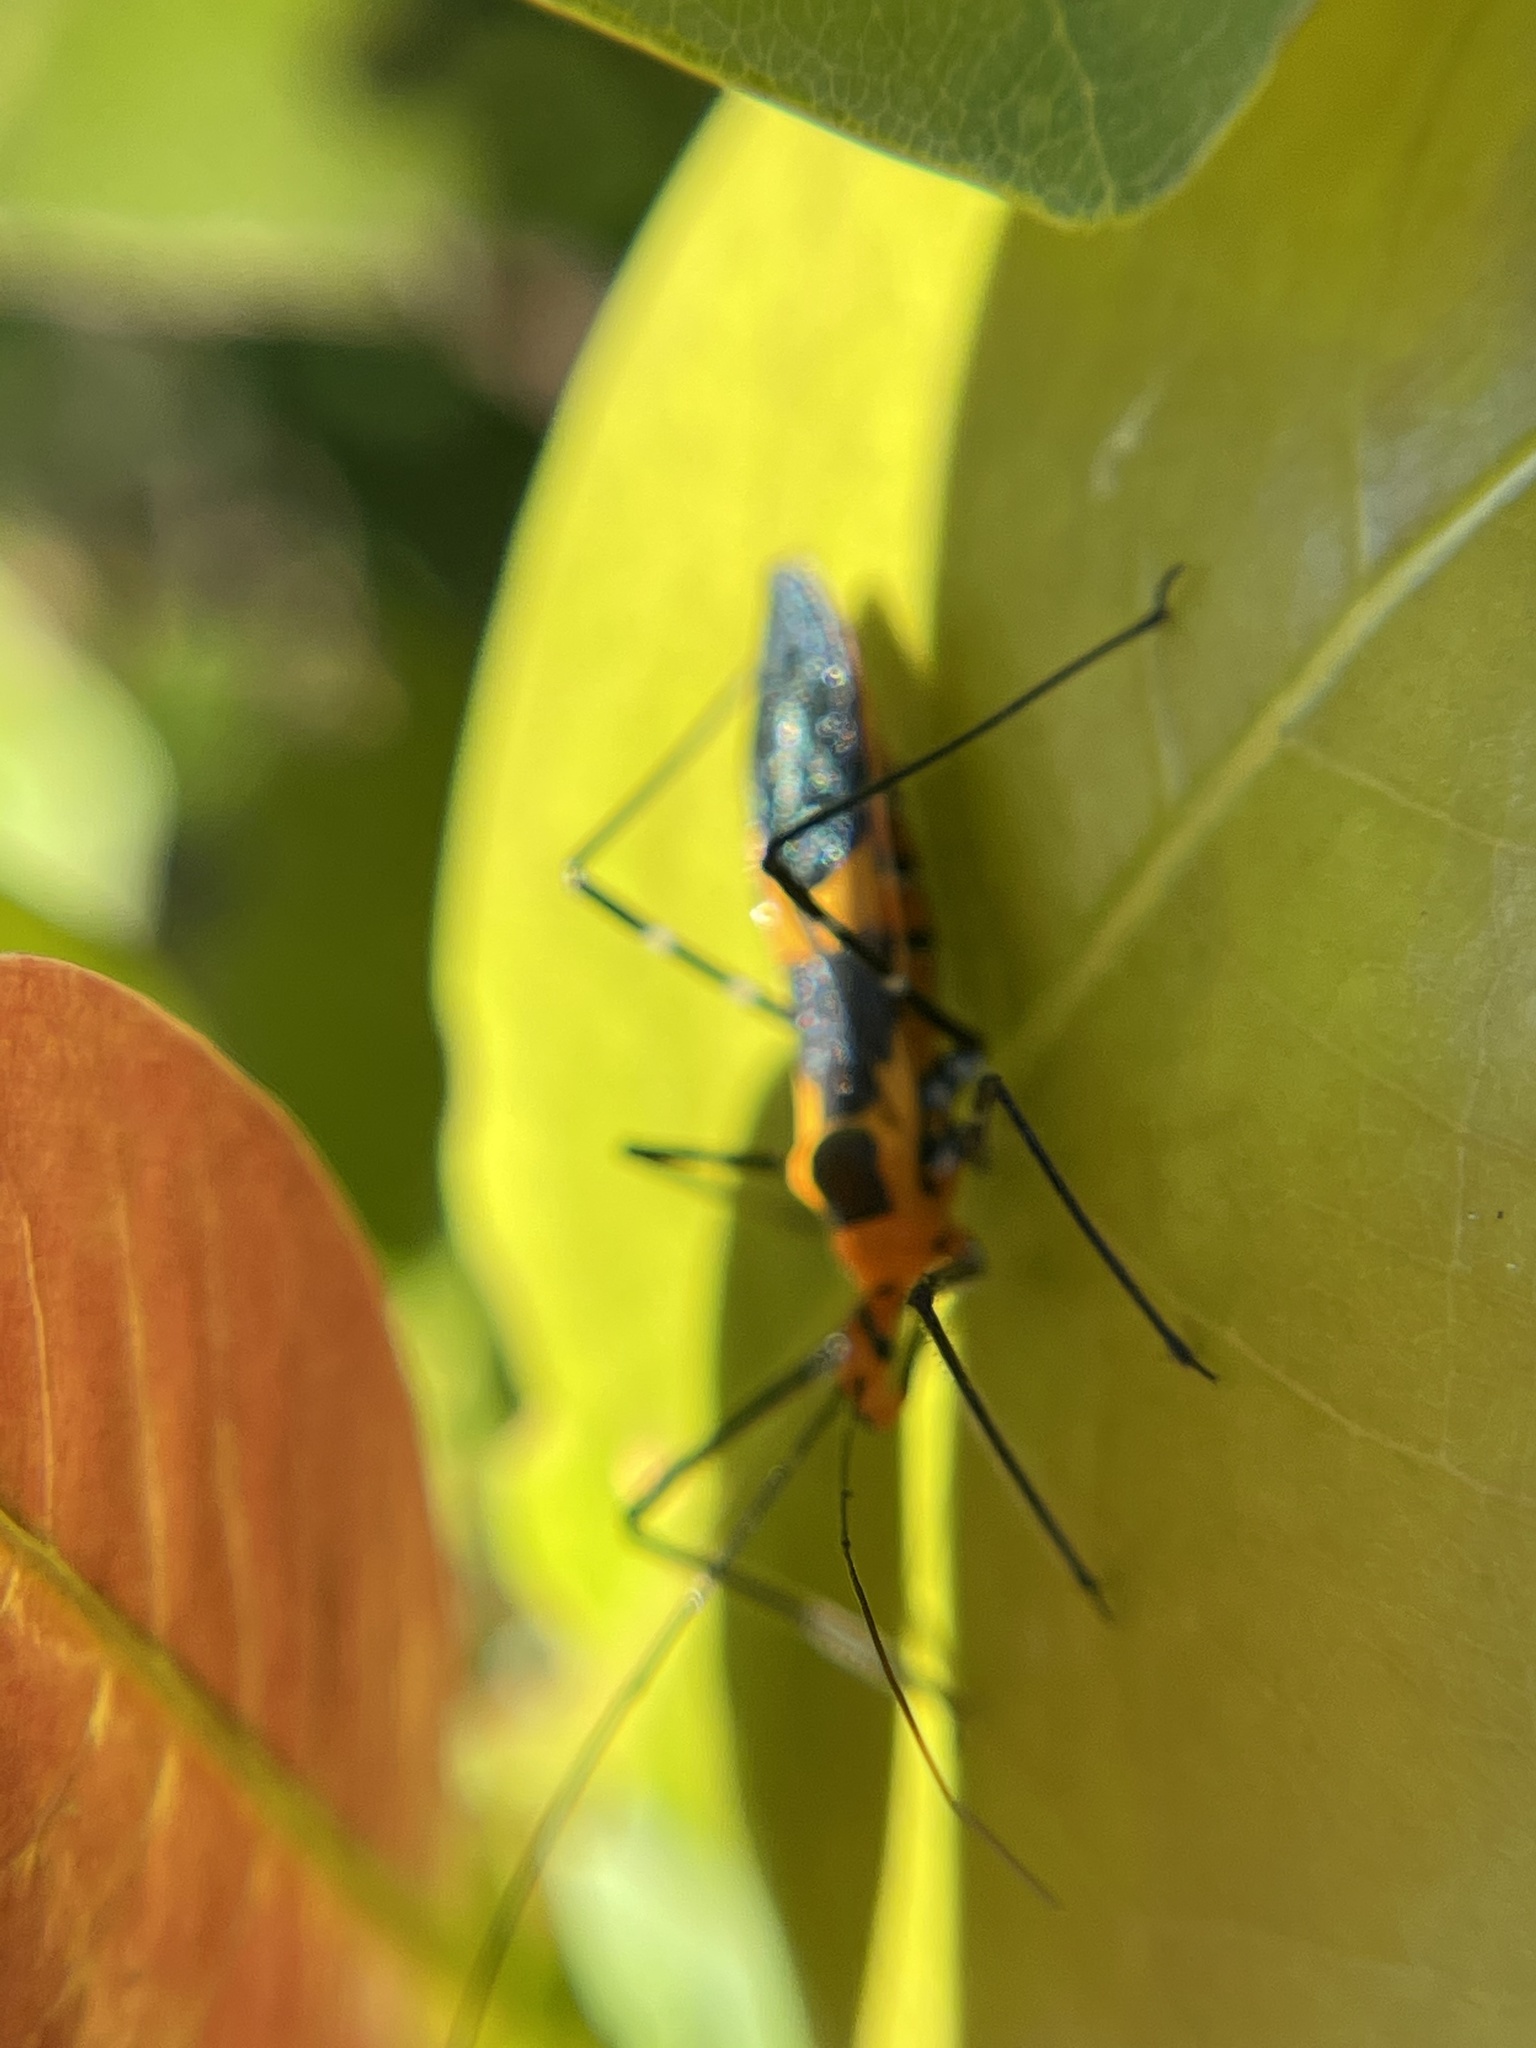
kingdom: Animalia
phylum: Arthropoda
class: Insecta
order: Hemiptera
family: Reduviidae
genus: Zelus
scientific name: Zelus longipes
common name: Milkweed assassin bug
